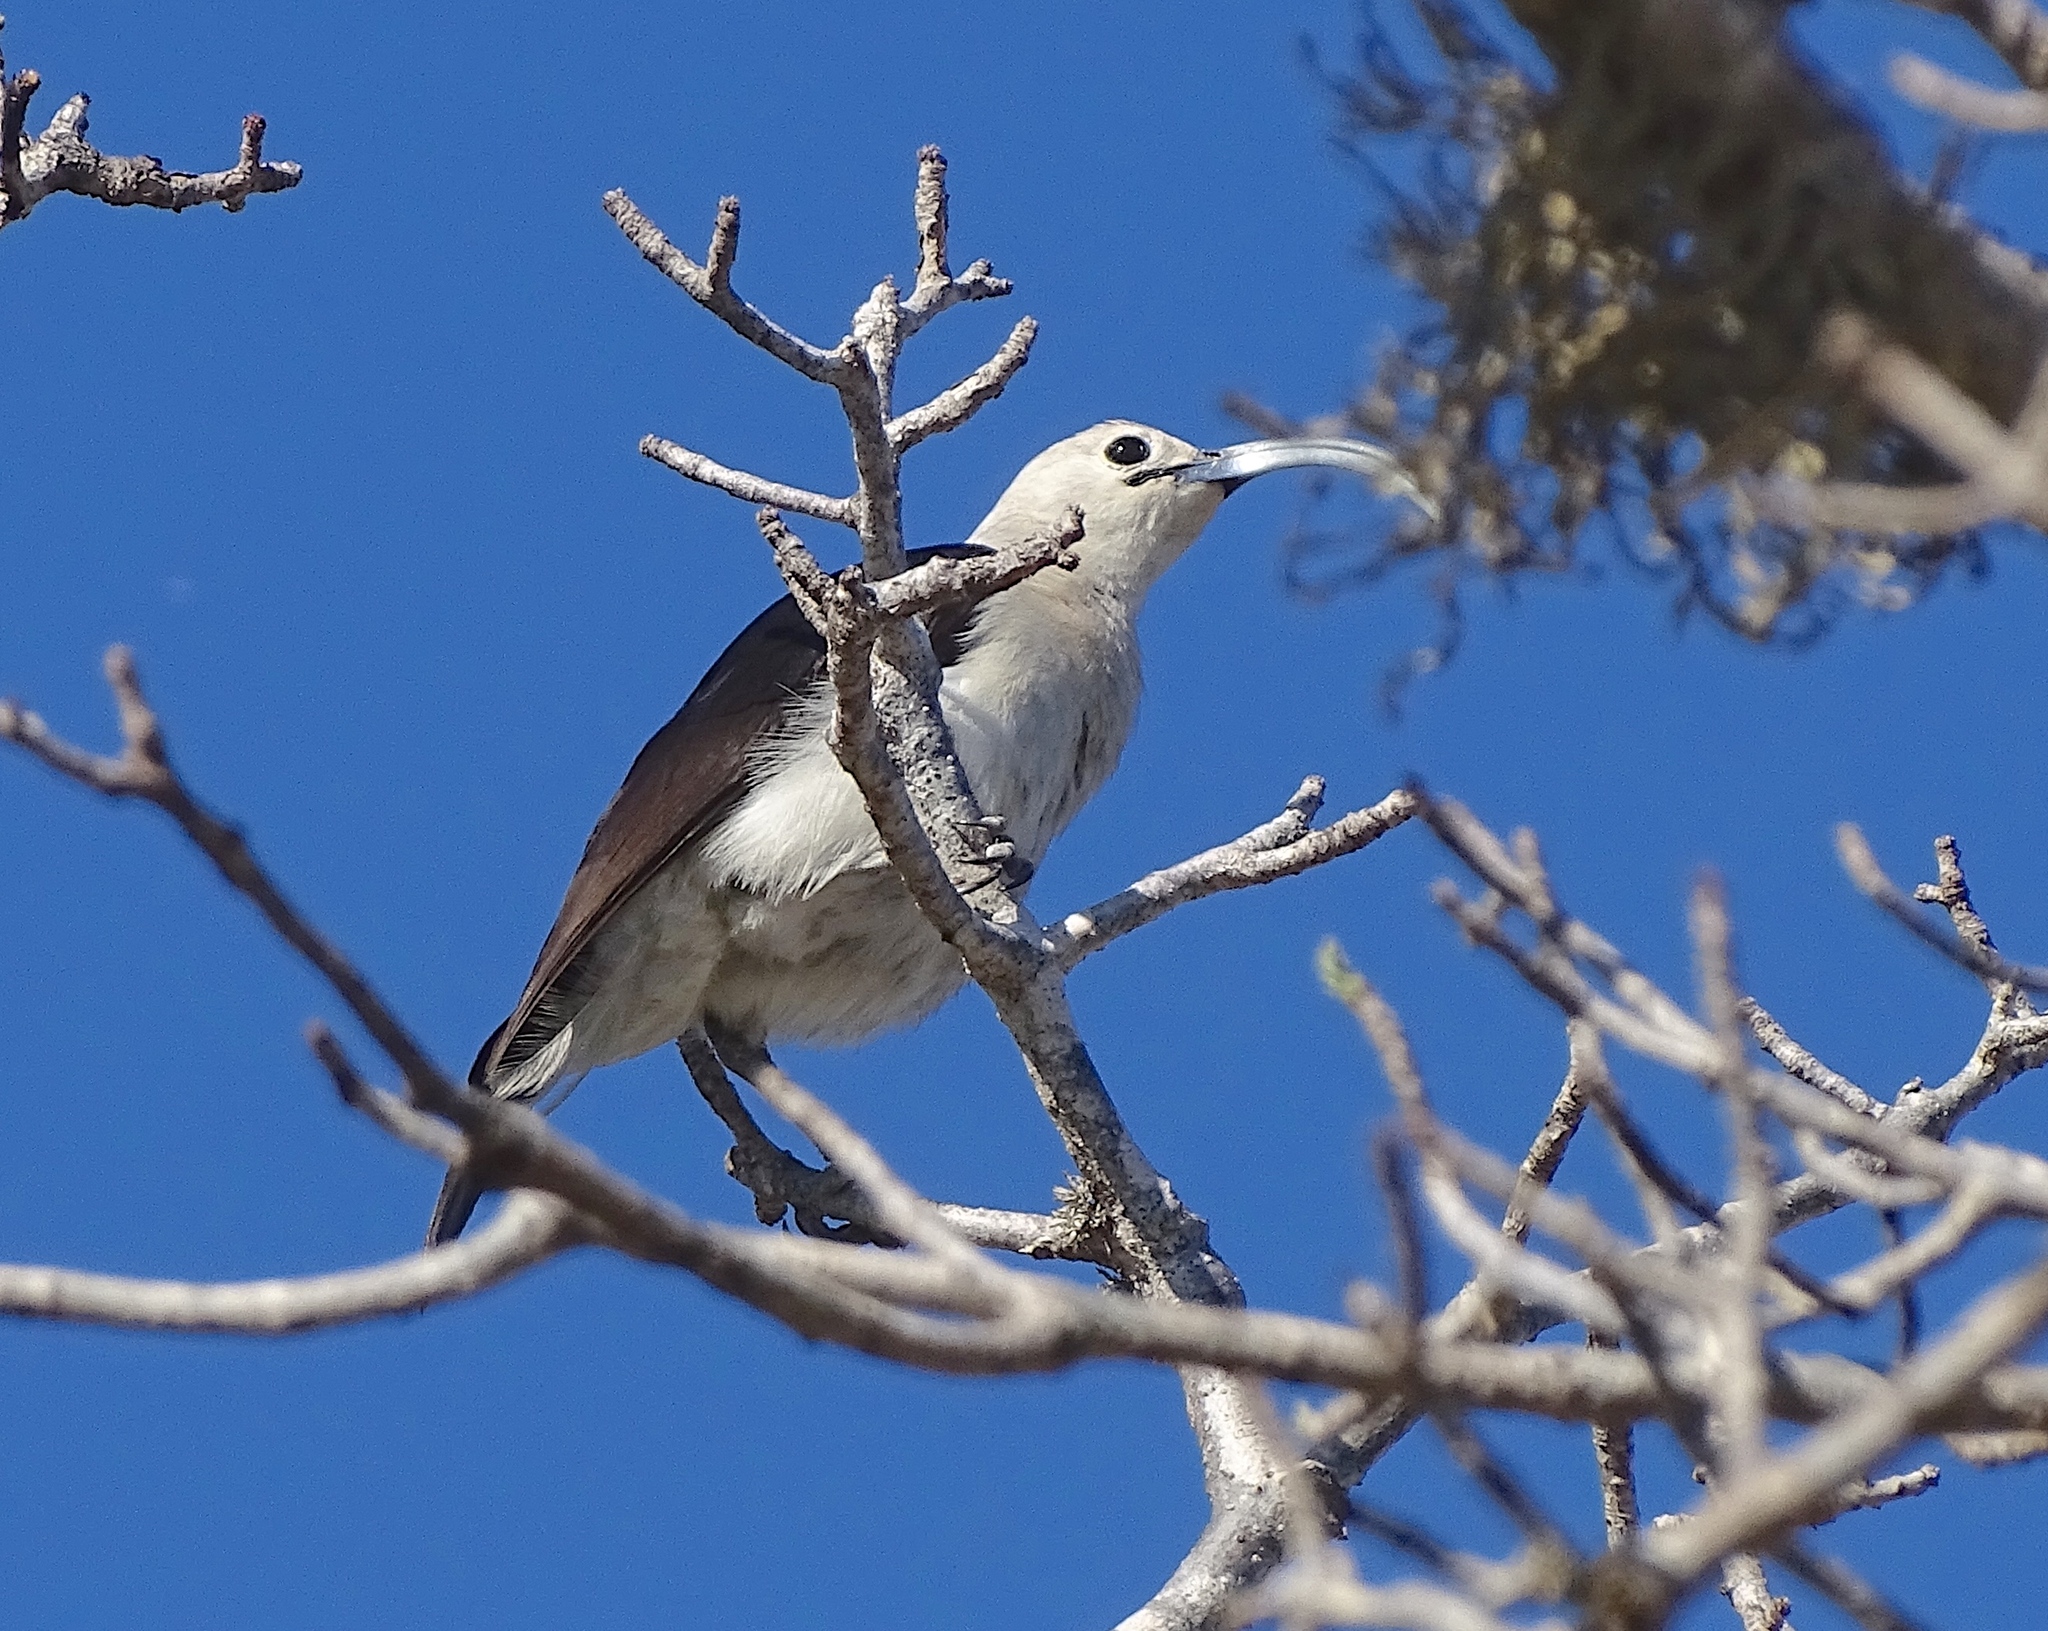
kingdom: Animalia
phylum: Chordata
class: Aves
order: Passeriformes
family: Vangidae
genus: Falculea
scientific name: Falculea palliata
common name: Sickle-billed vanga
